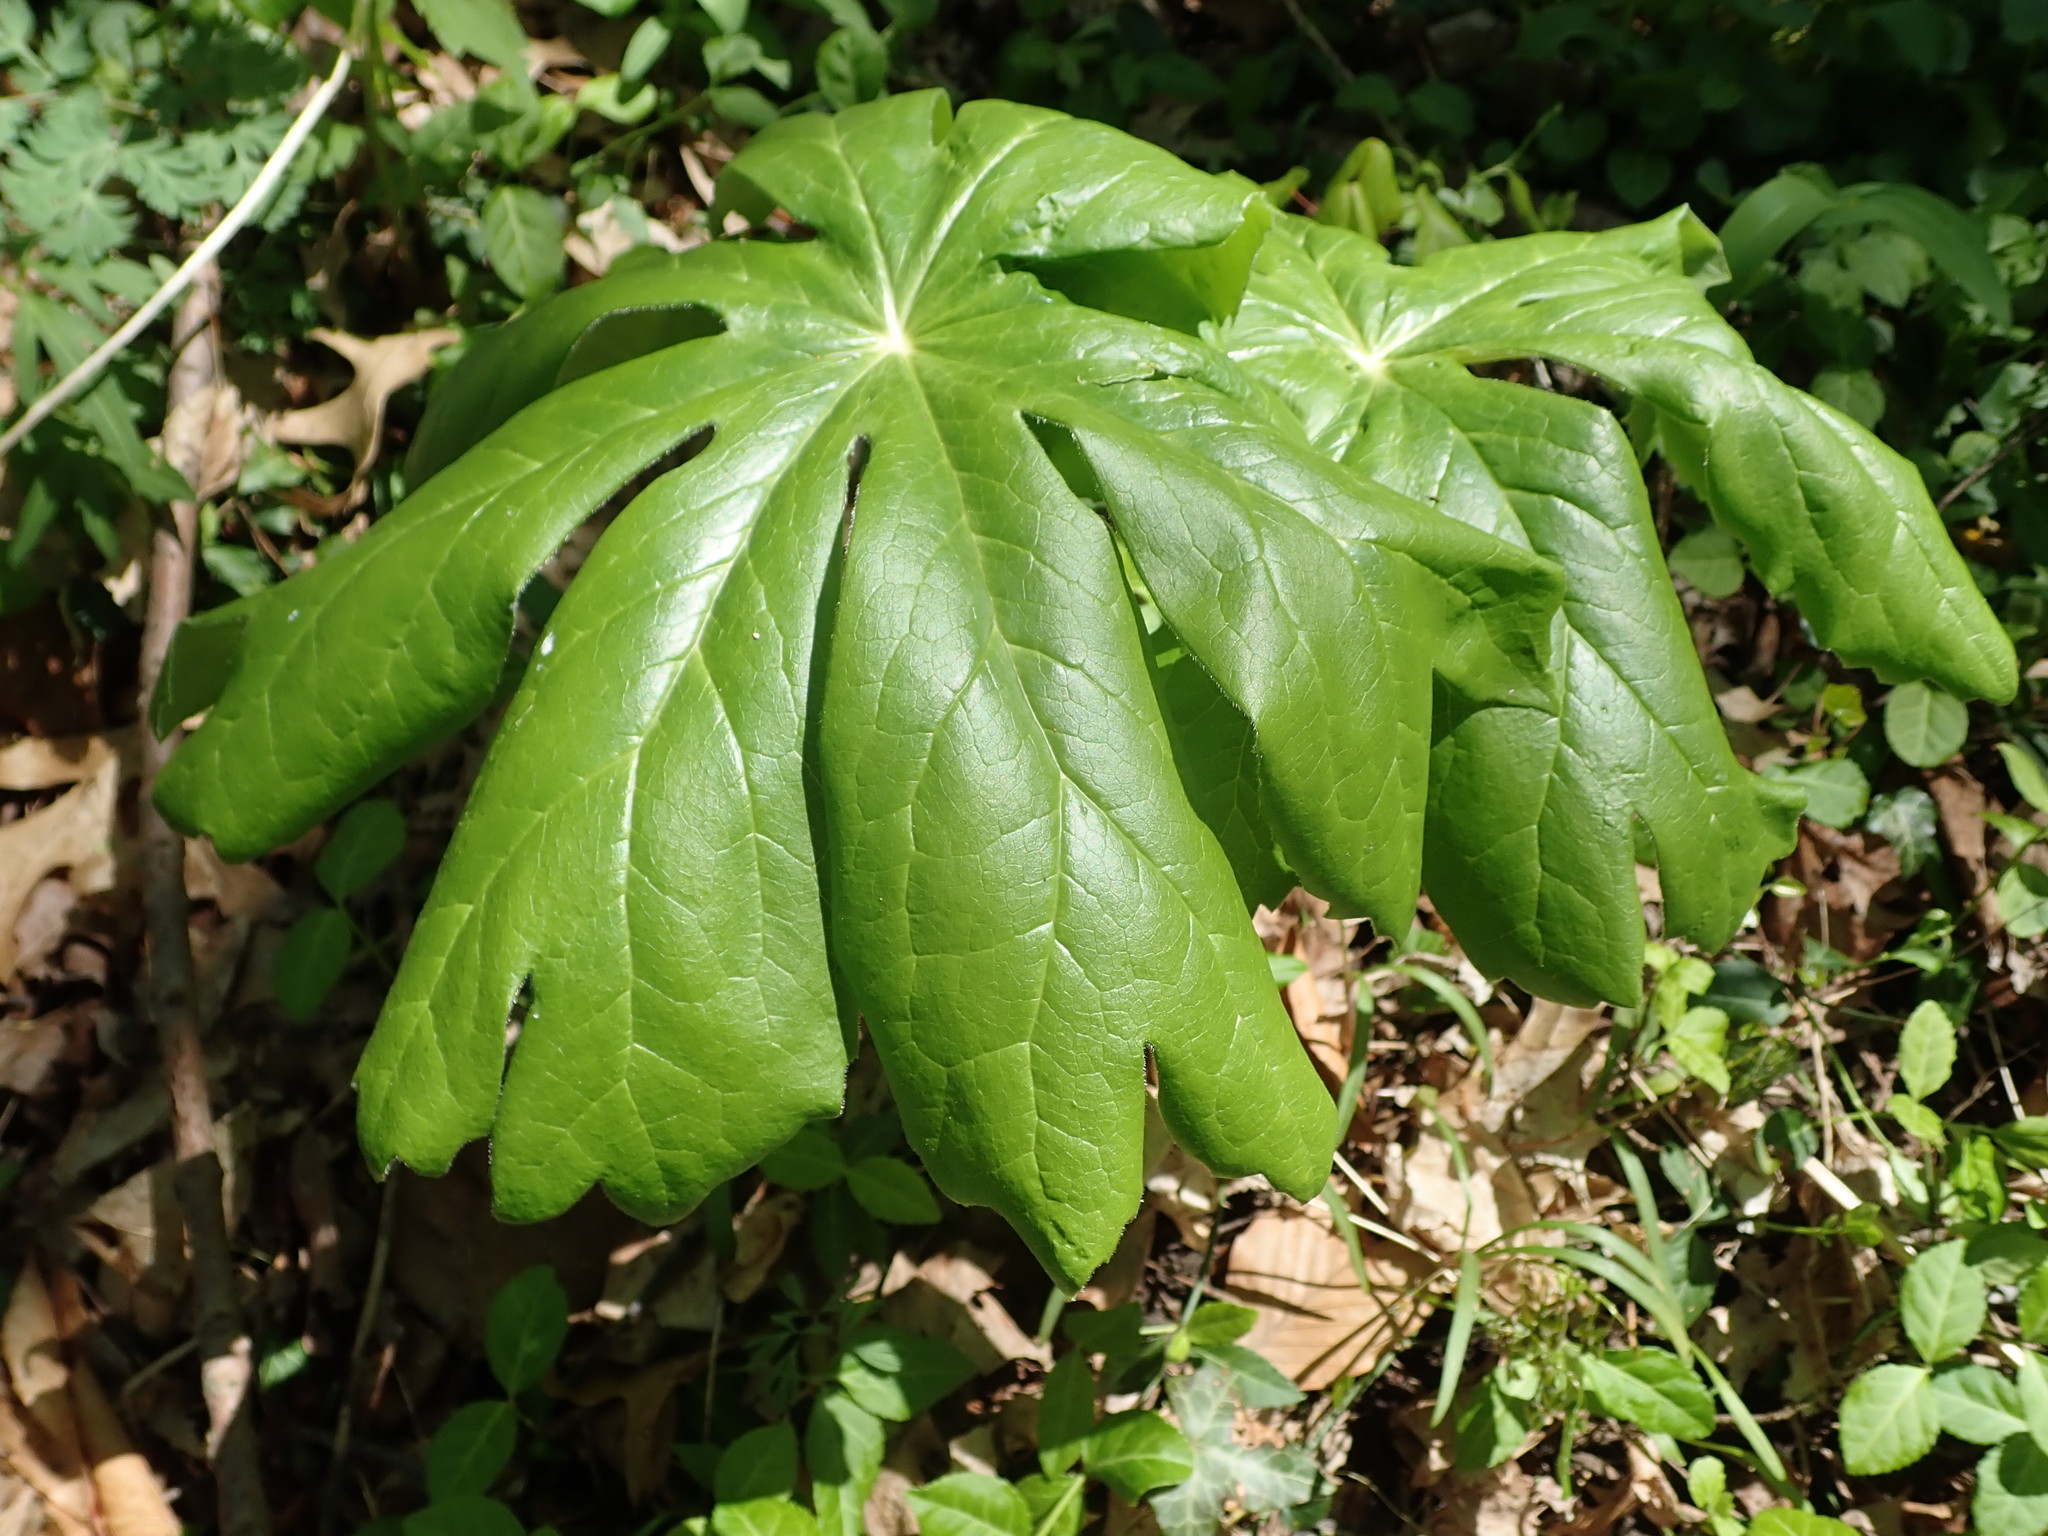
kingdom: Plantae
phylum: Tracheophyta
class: Magnoliopsida
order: Ranunculales
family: Berberidaceae
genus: Podophyllum
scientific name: Podophyllum peltatum
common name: Wild mandrake
